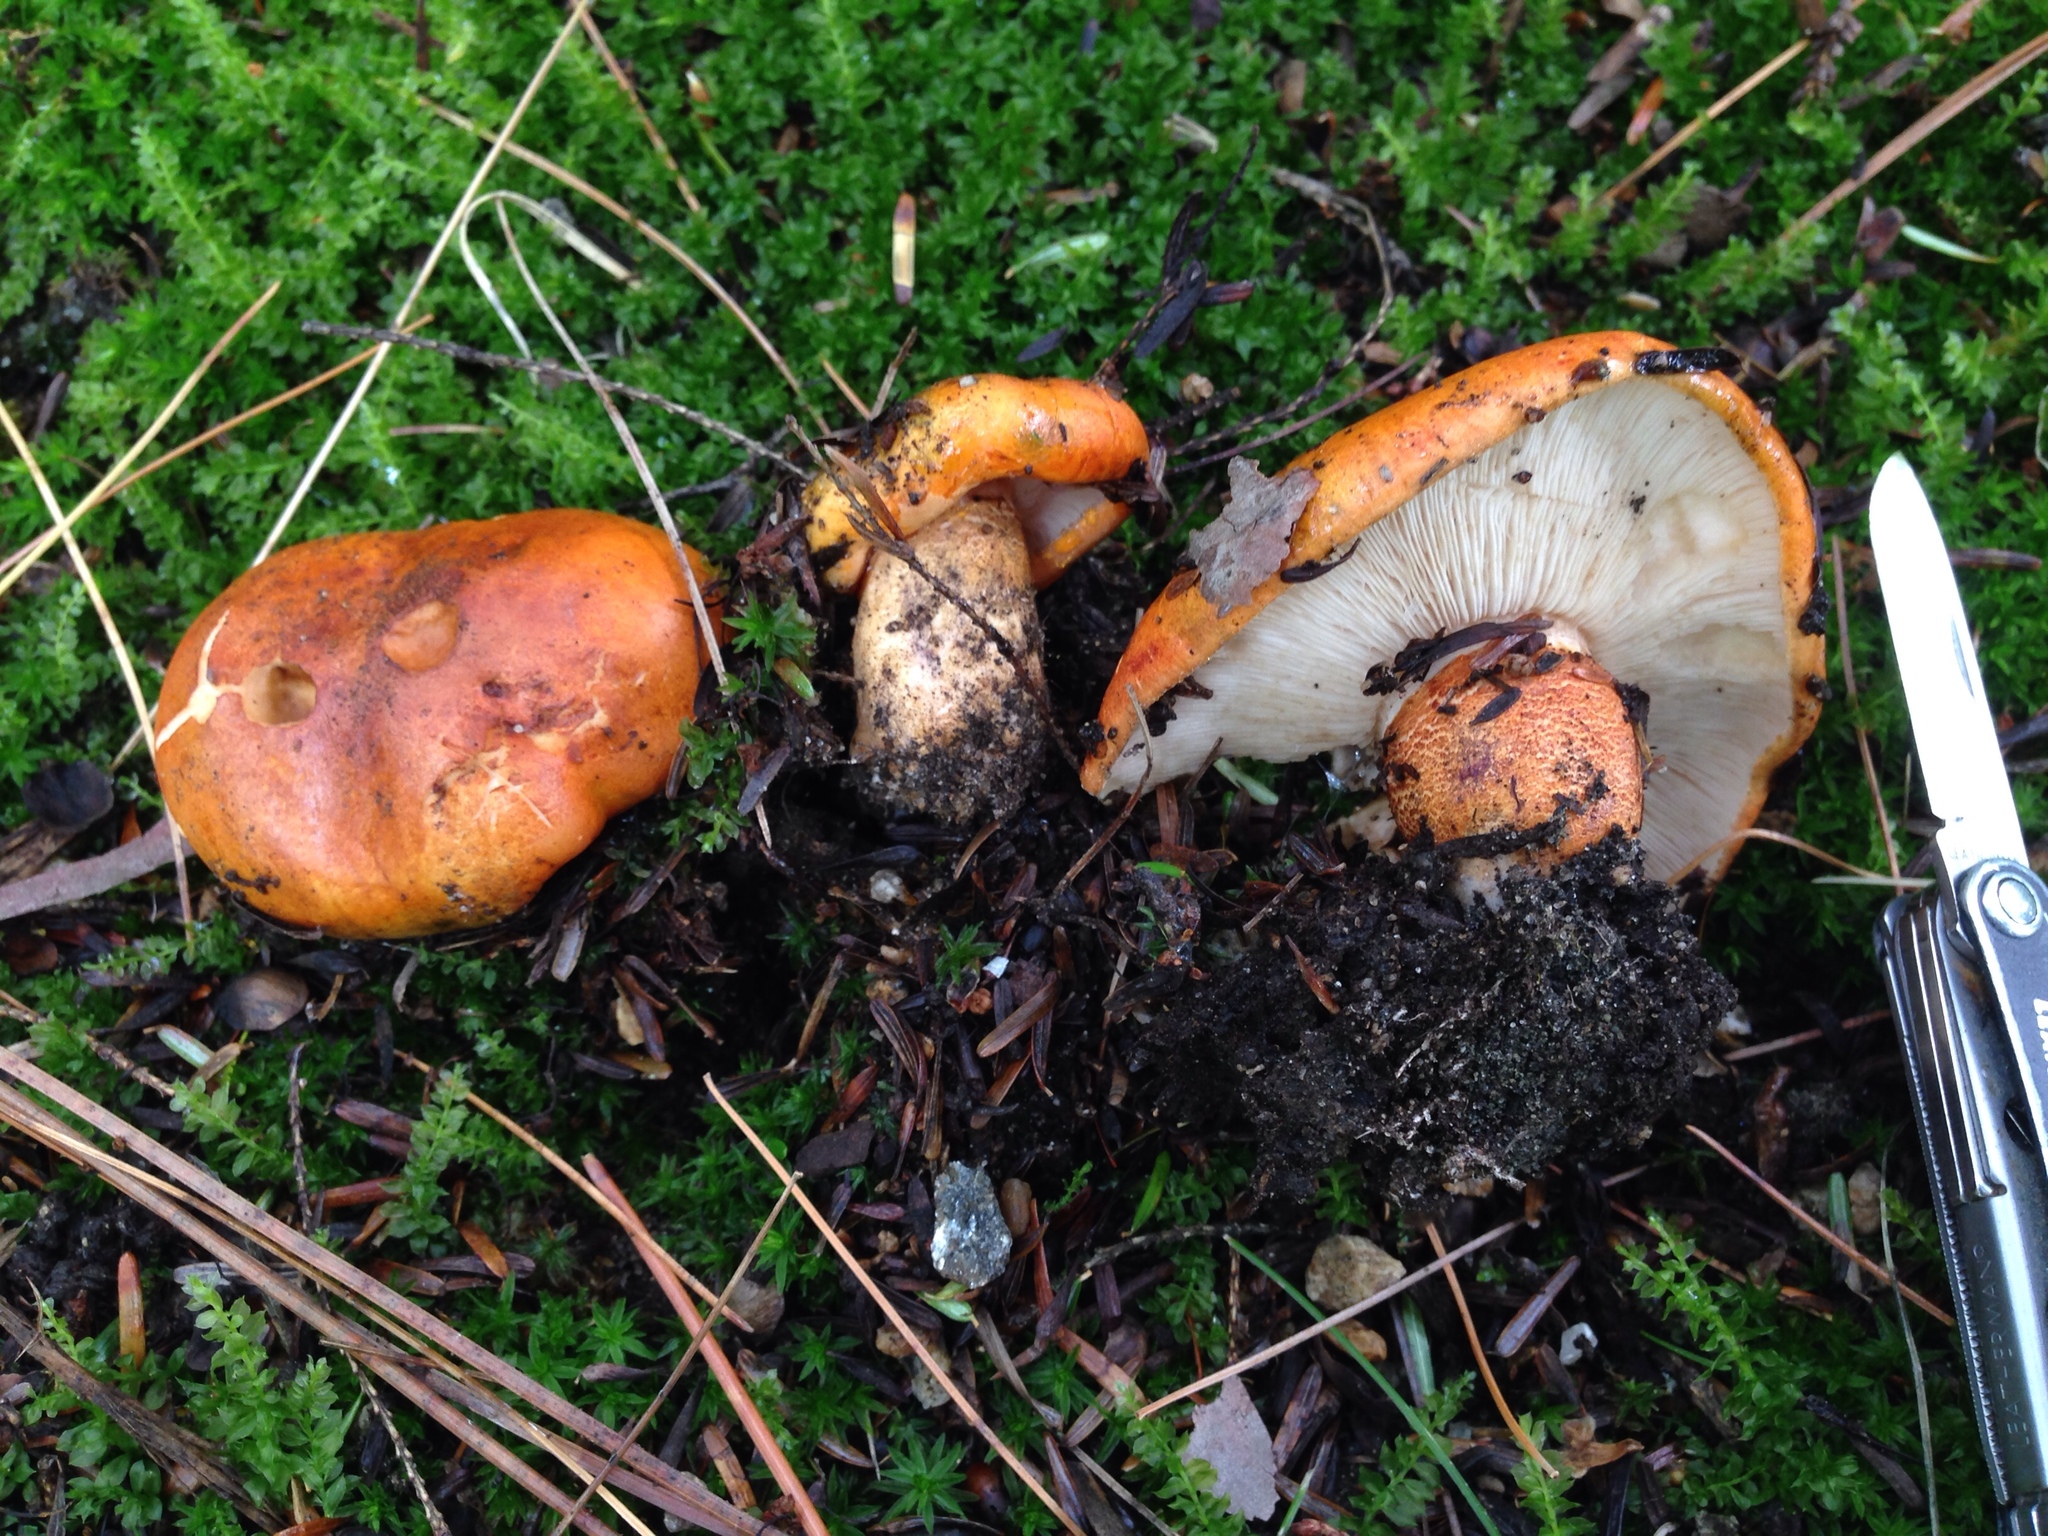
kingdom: Fungi
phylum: Basidiomycota
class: Agaricomycetes
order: Agaricales
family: Tricholomataceae
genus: Tricholoma
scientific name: Tricholoma aurantium
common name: Orange knight
